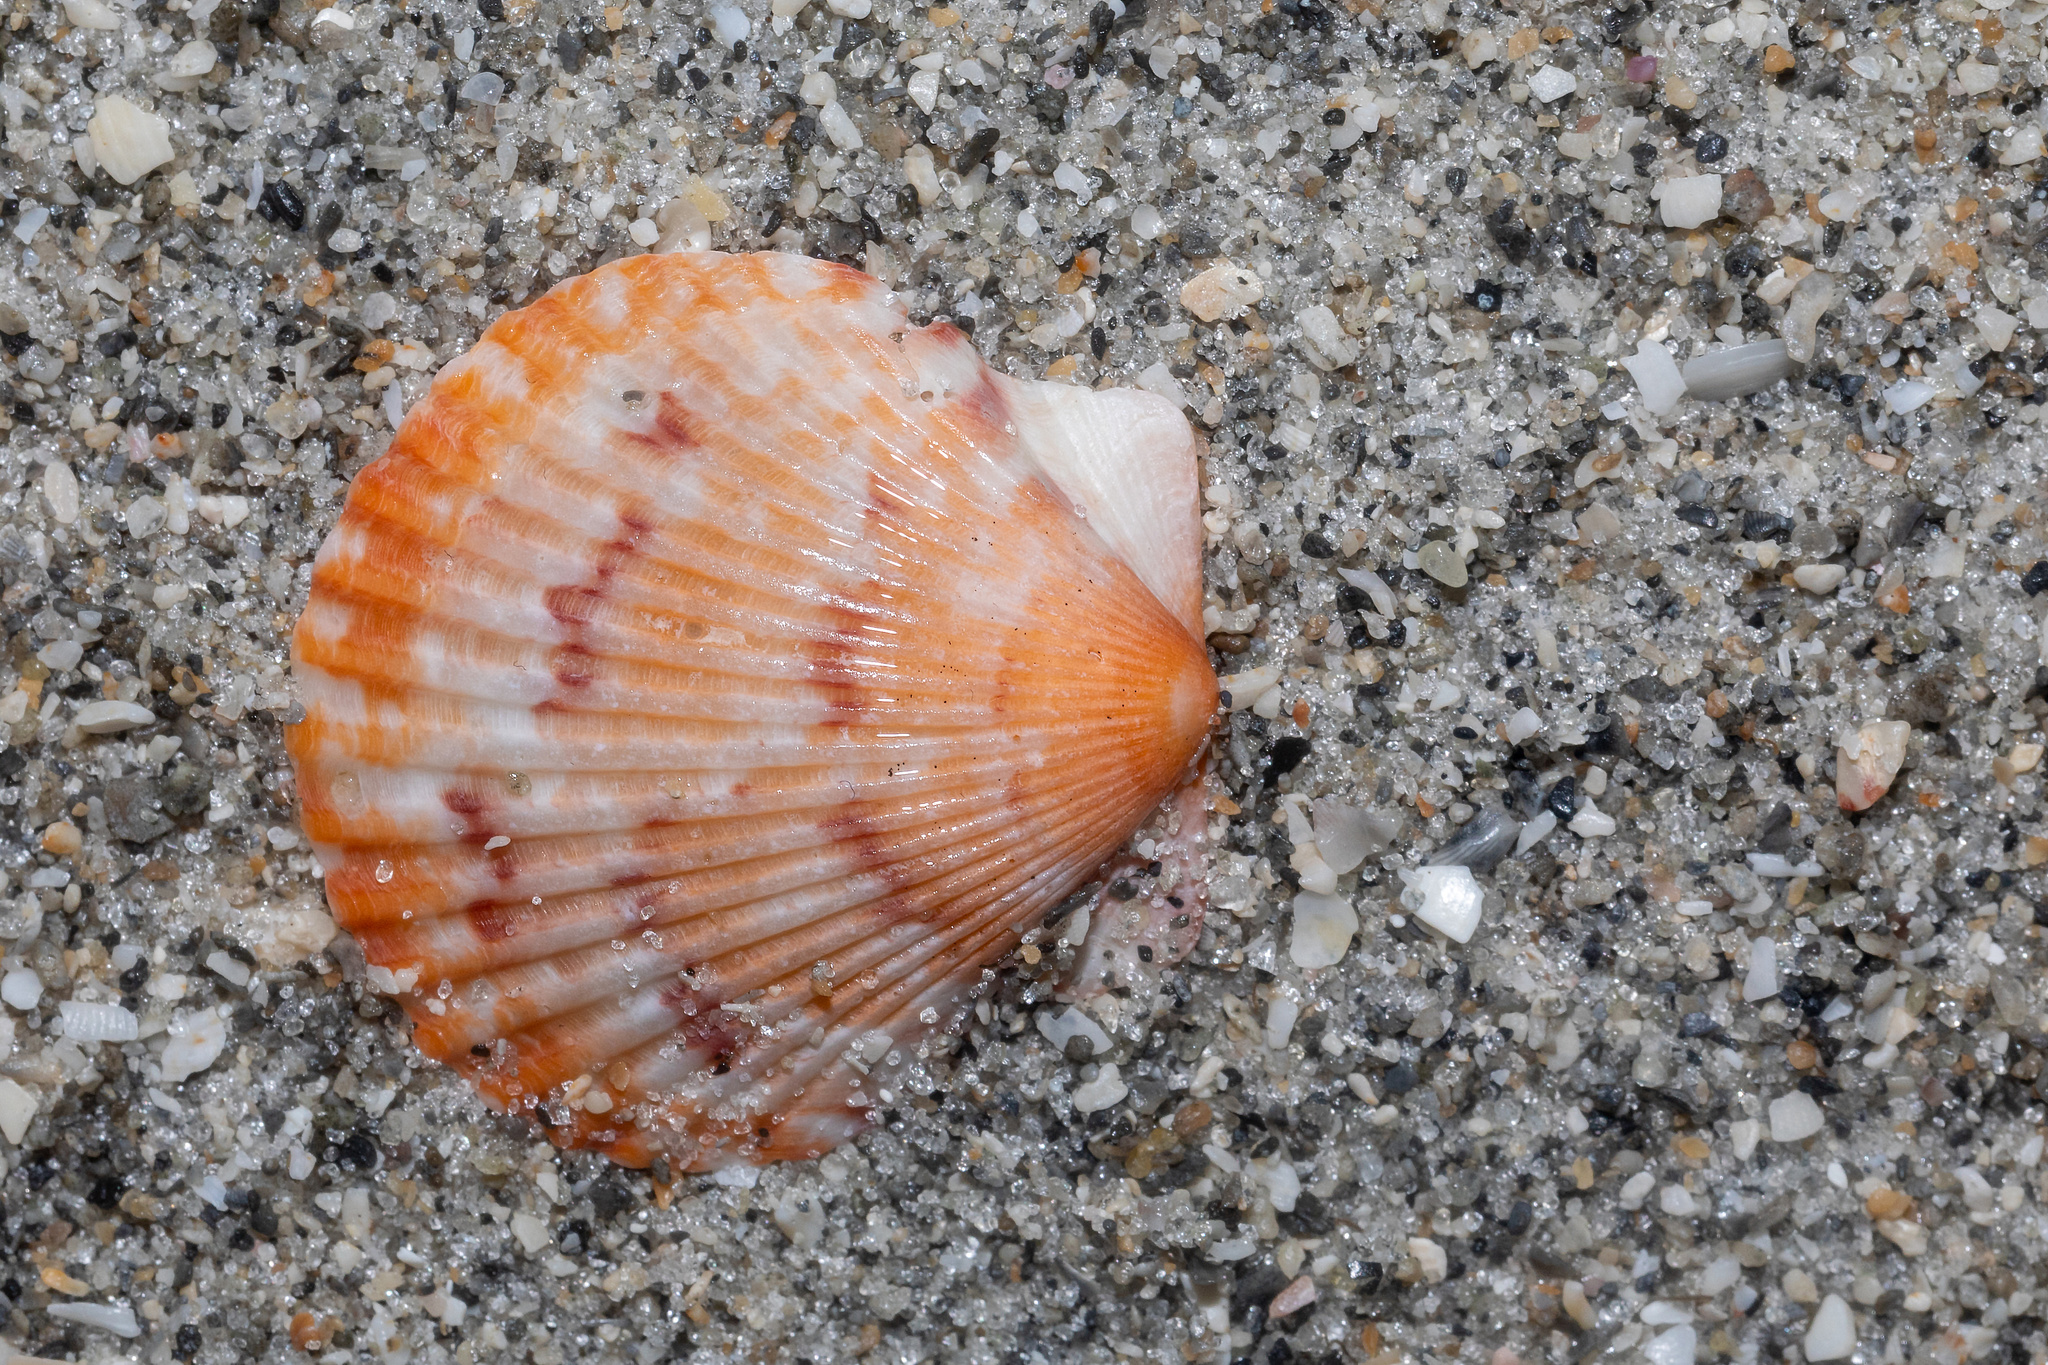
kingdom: Animalia
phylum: Mollusca
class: Bivalvia
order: Pectinida
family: Pectinidae
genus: Argopecten
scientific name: Argopecten gibbus
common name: Atlantic calico scallop
